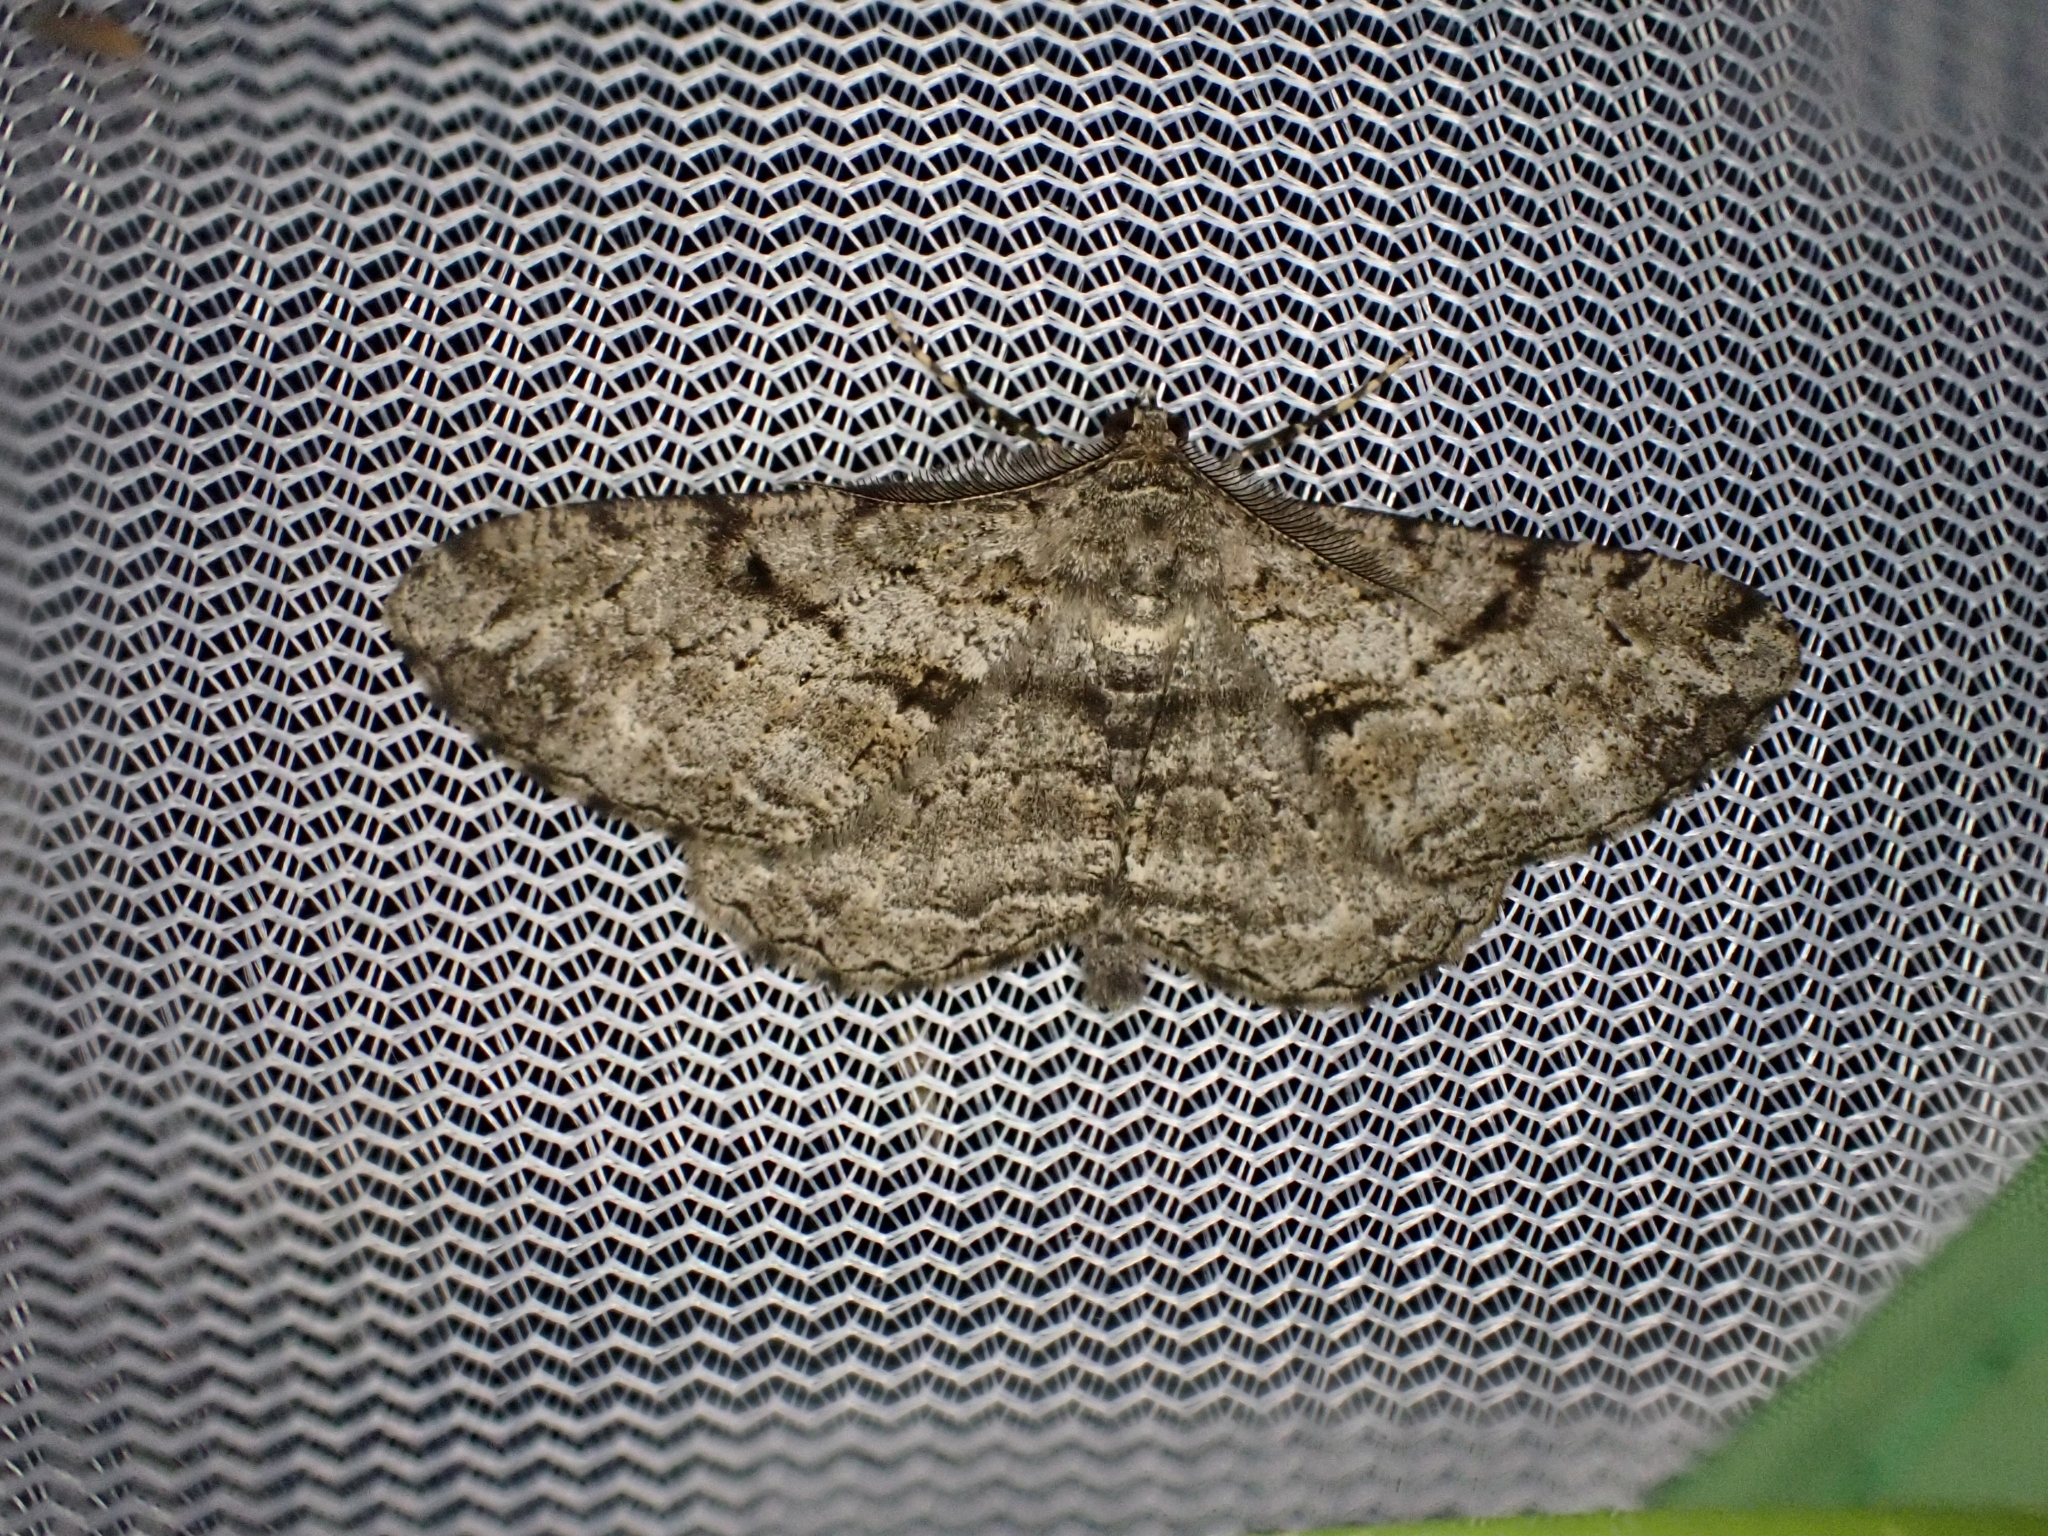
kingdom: Animalia
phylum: Arthropoda
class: Insecta
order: Lepidoptera
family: Geometridae
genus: Peribatodes
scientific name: Peribatodes rhomboidaria
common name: Willow beauty
